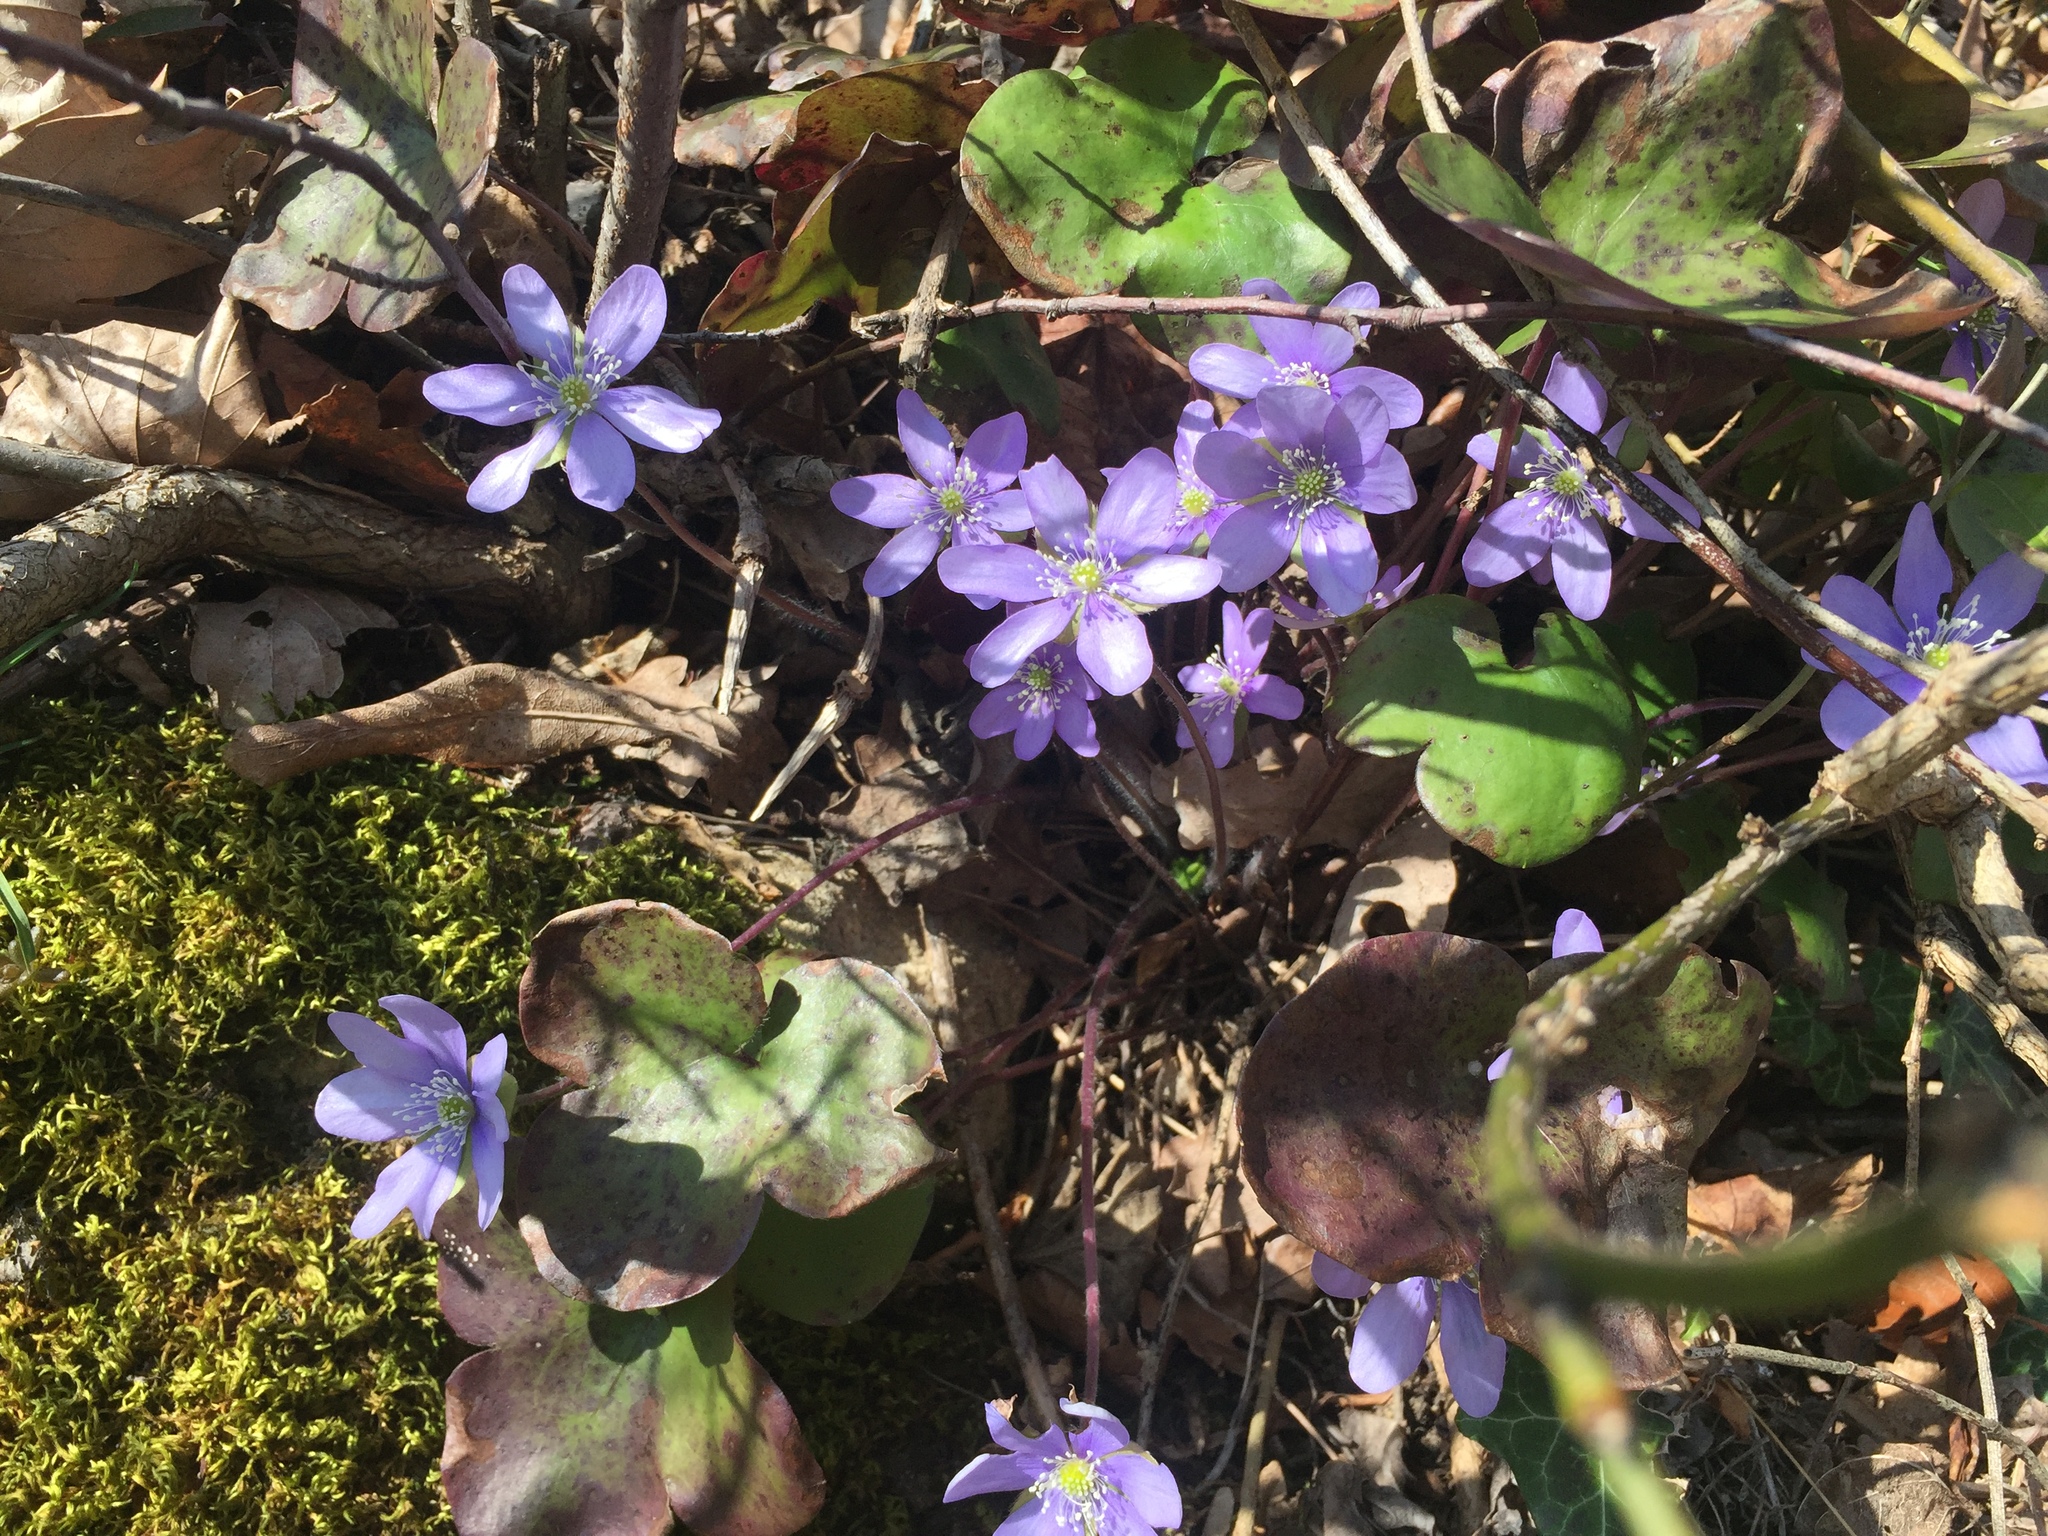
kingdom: Plantae
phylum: Tracheophyta
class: Magnoliopsida
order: Ranunculales
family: Ranunculaceae
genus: Hepatica
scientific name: Hepatica nobilis
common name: Liverleaf
